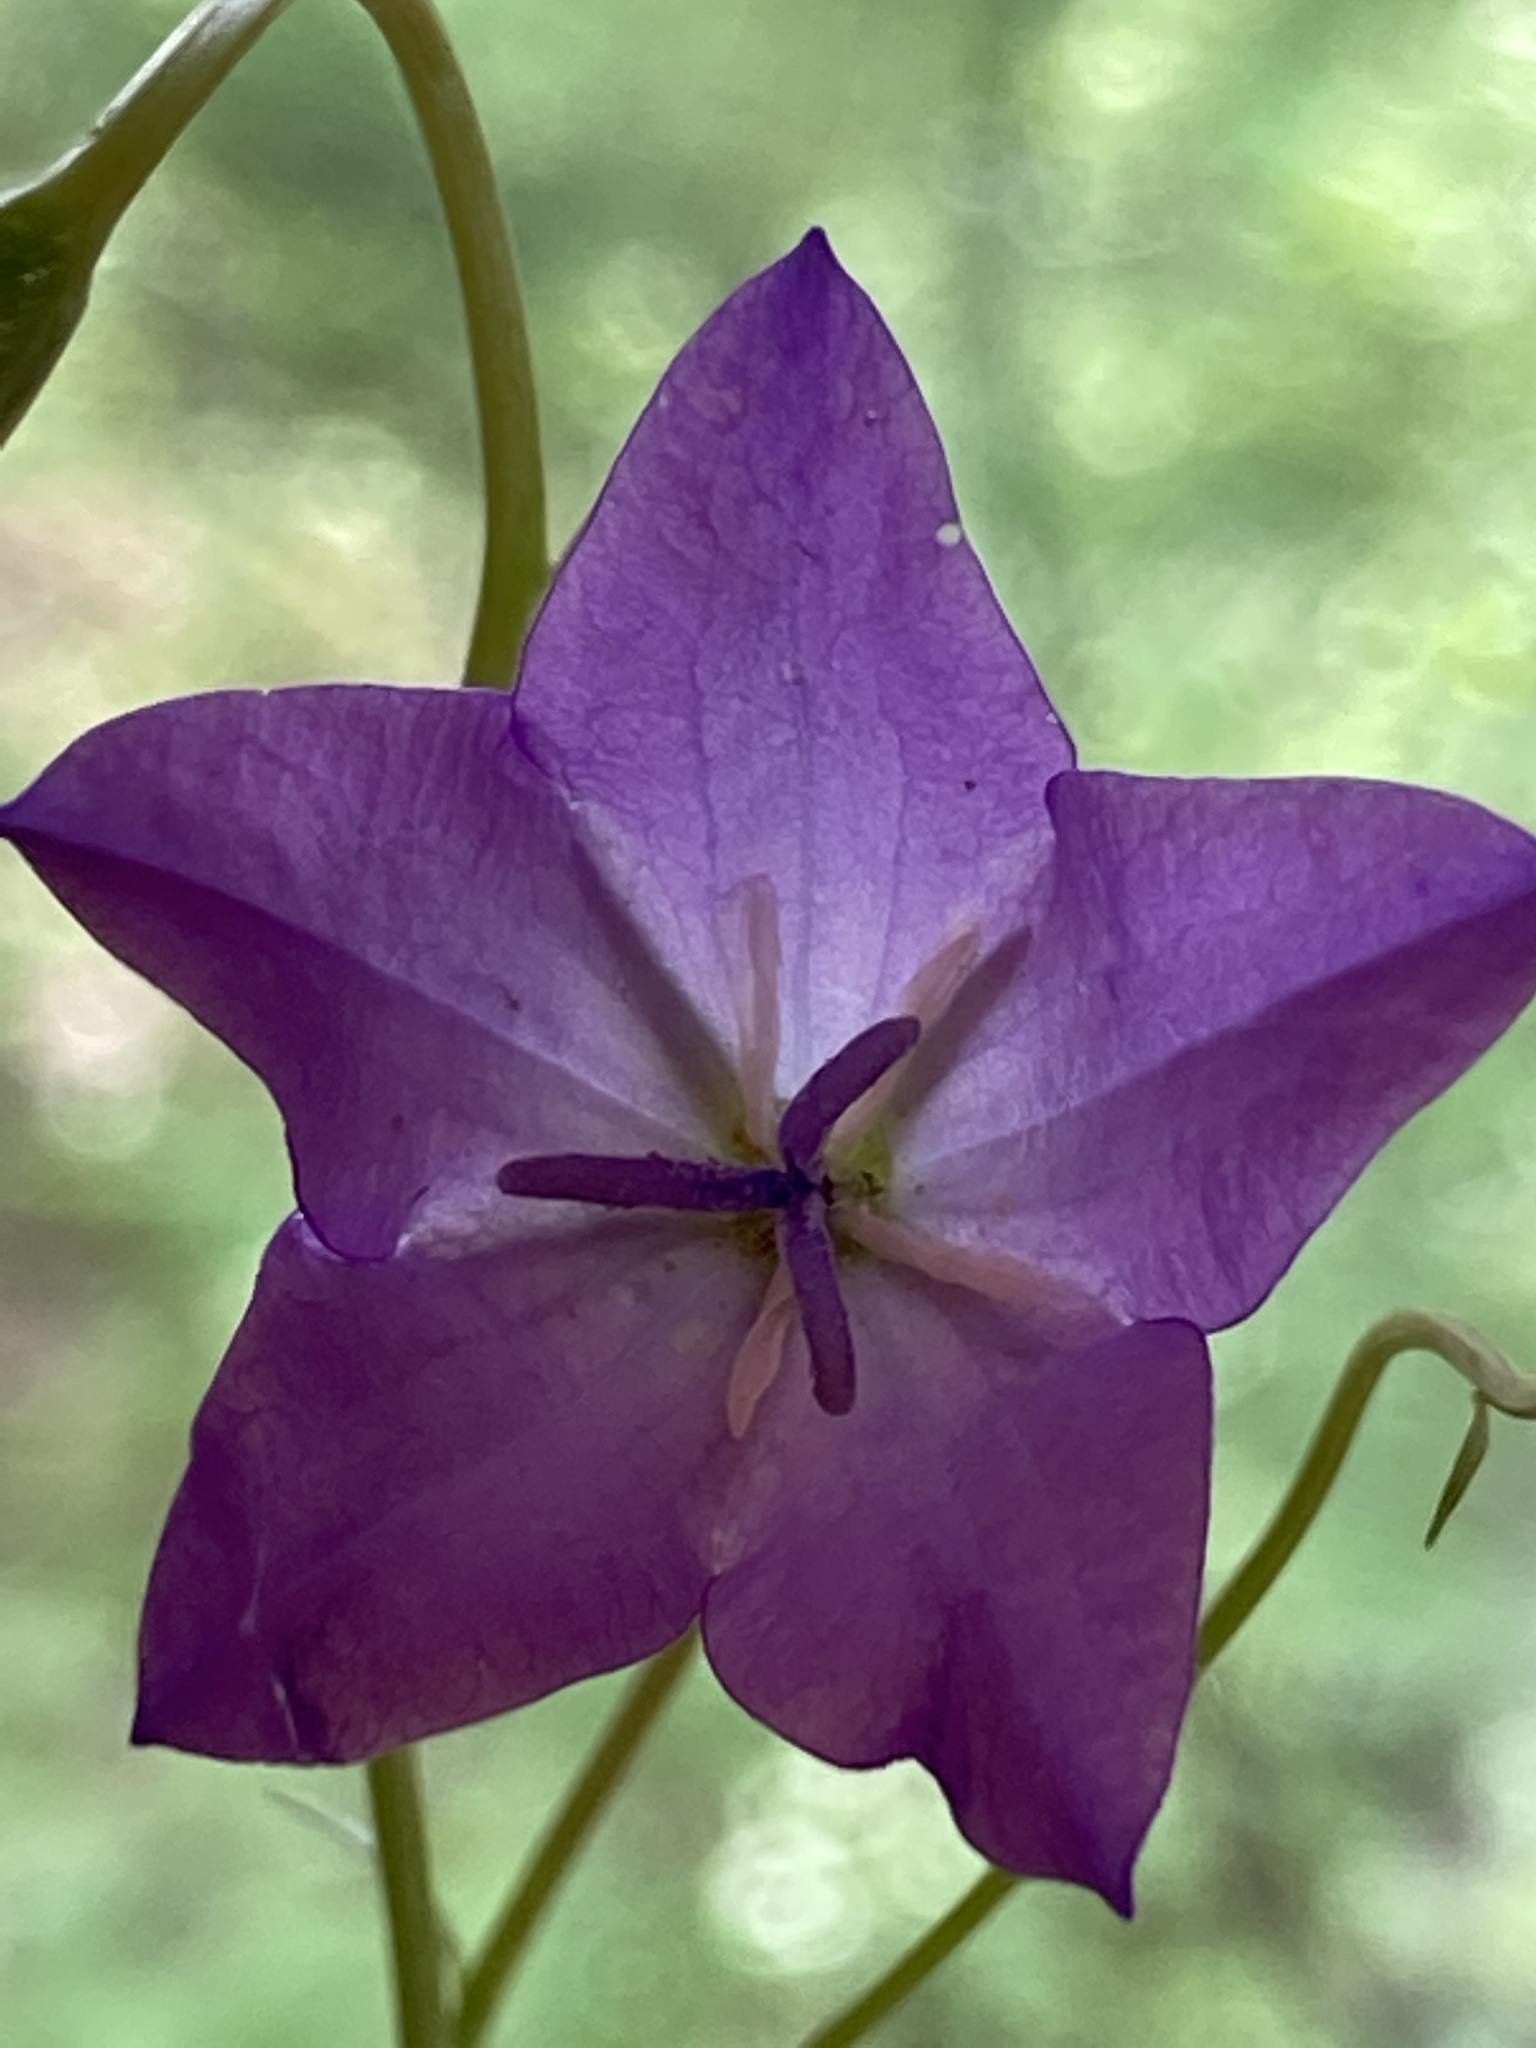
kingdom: Plantae
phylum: Tracheophyta
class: Magnoliopsida
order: Asterales
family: Campanulaceae
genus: Campanula
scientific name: Campanula stevenii
